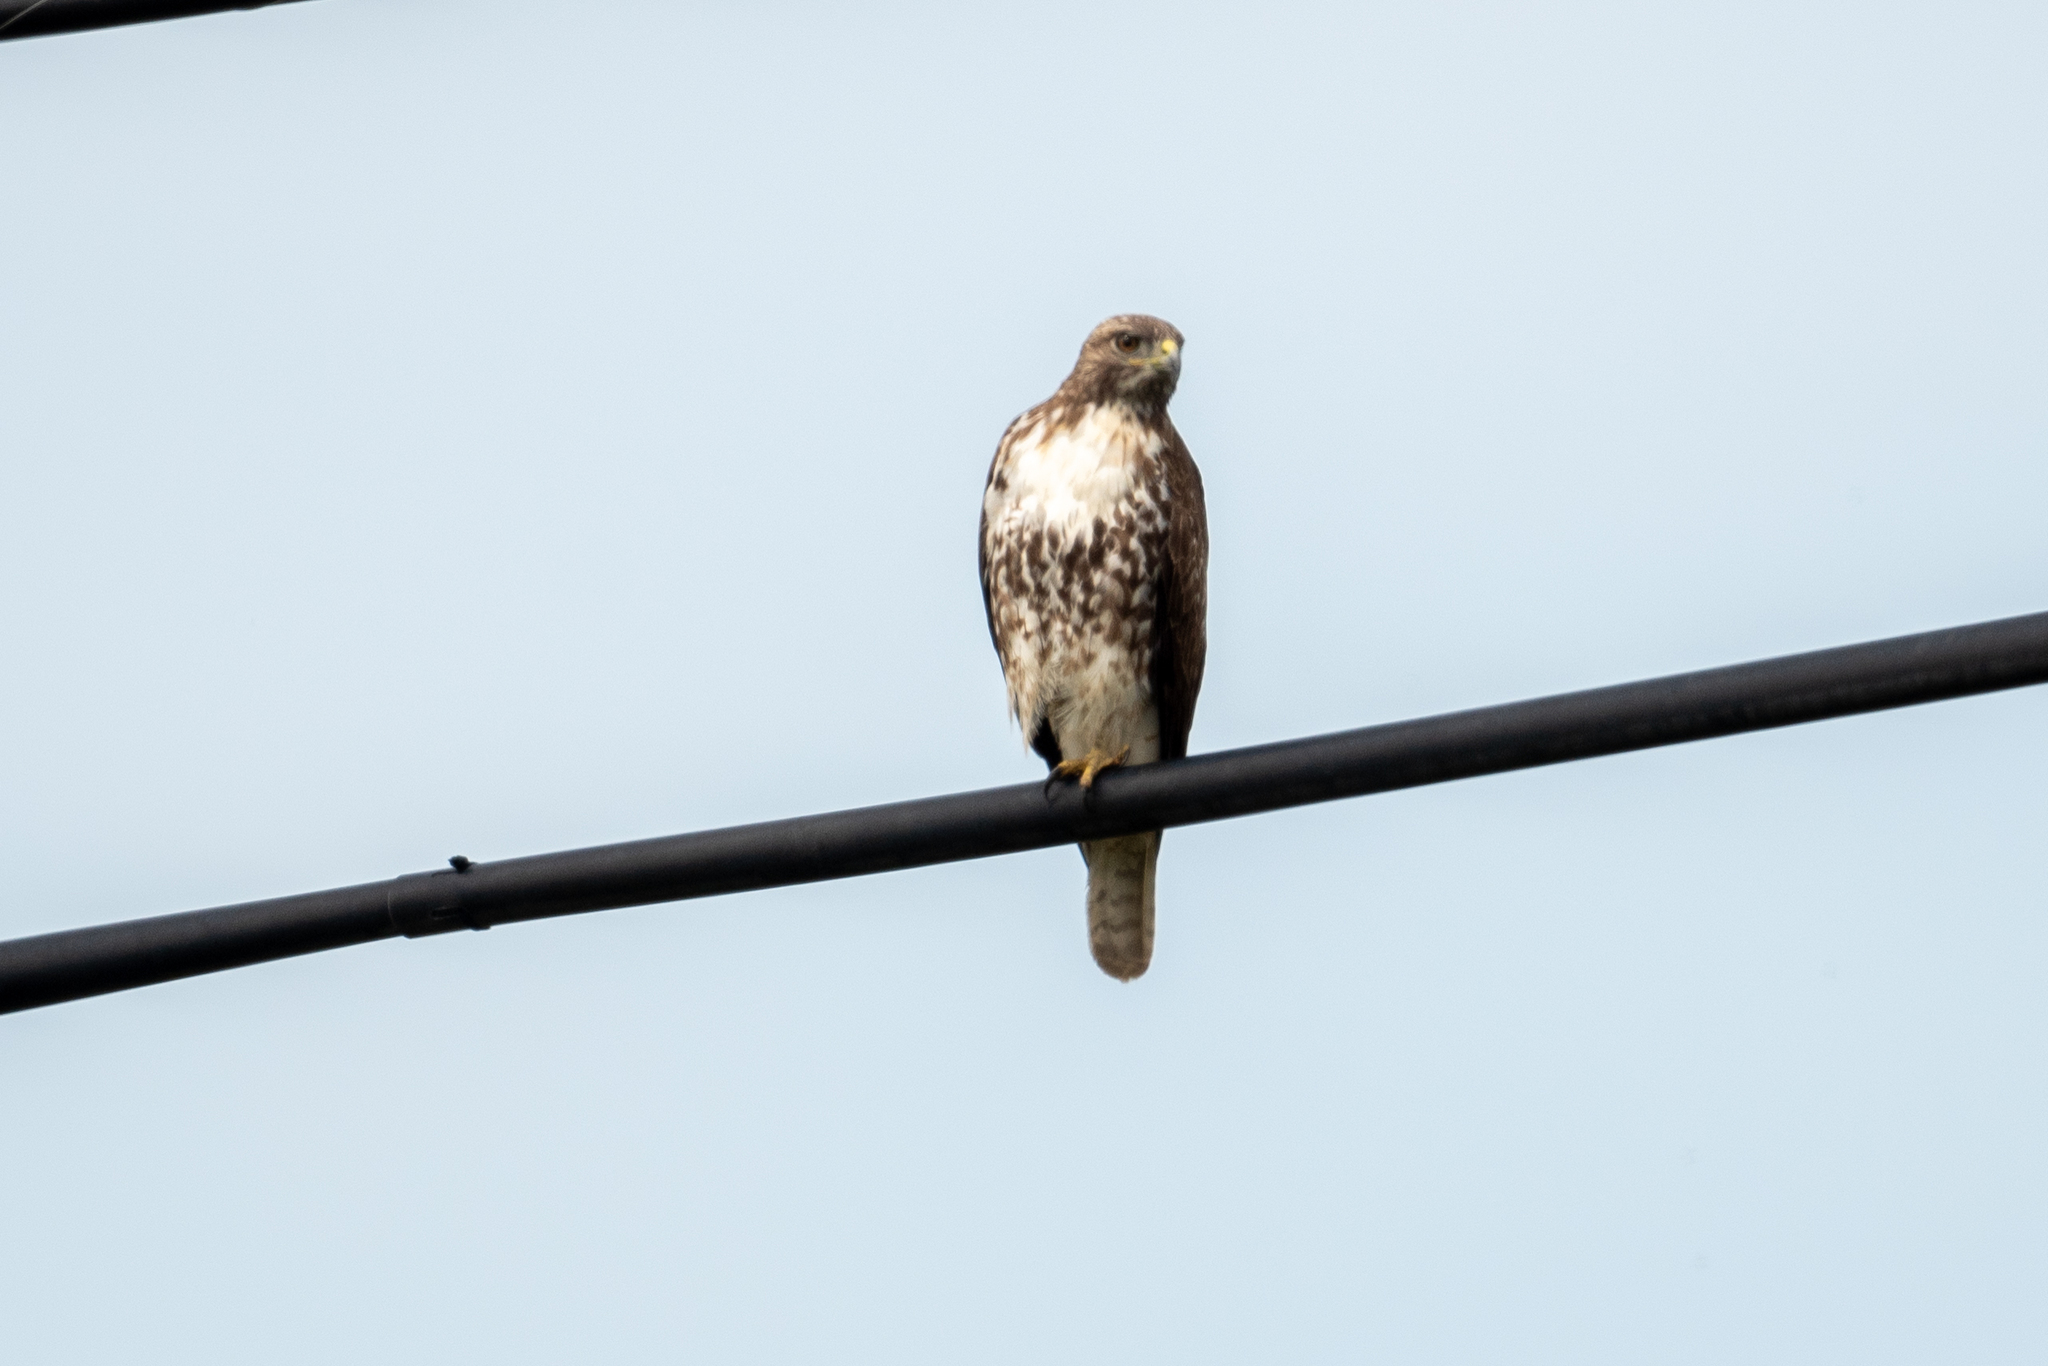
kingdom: Animalia
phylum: Chordata
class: Aves
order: Accipitriformes
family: Accipitridae
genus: Buteo
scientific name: Buteo jamaicensis
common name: Red-tailed hawk
